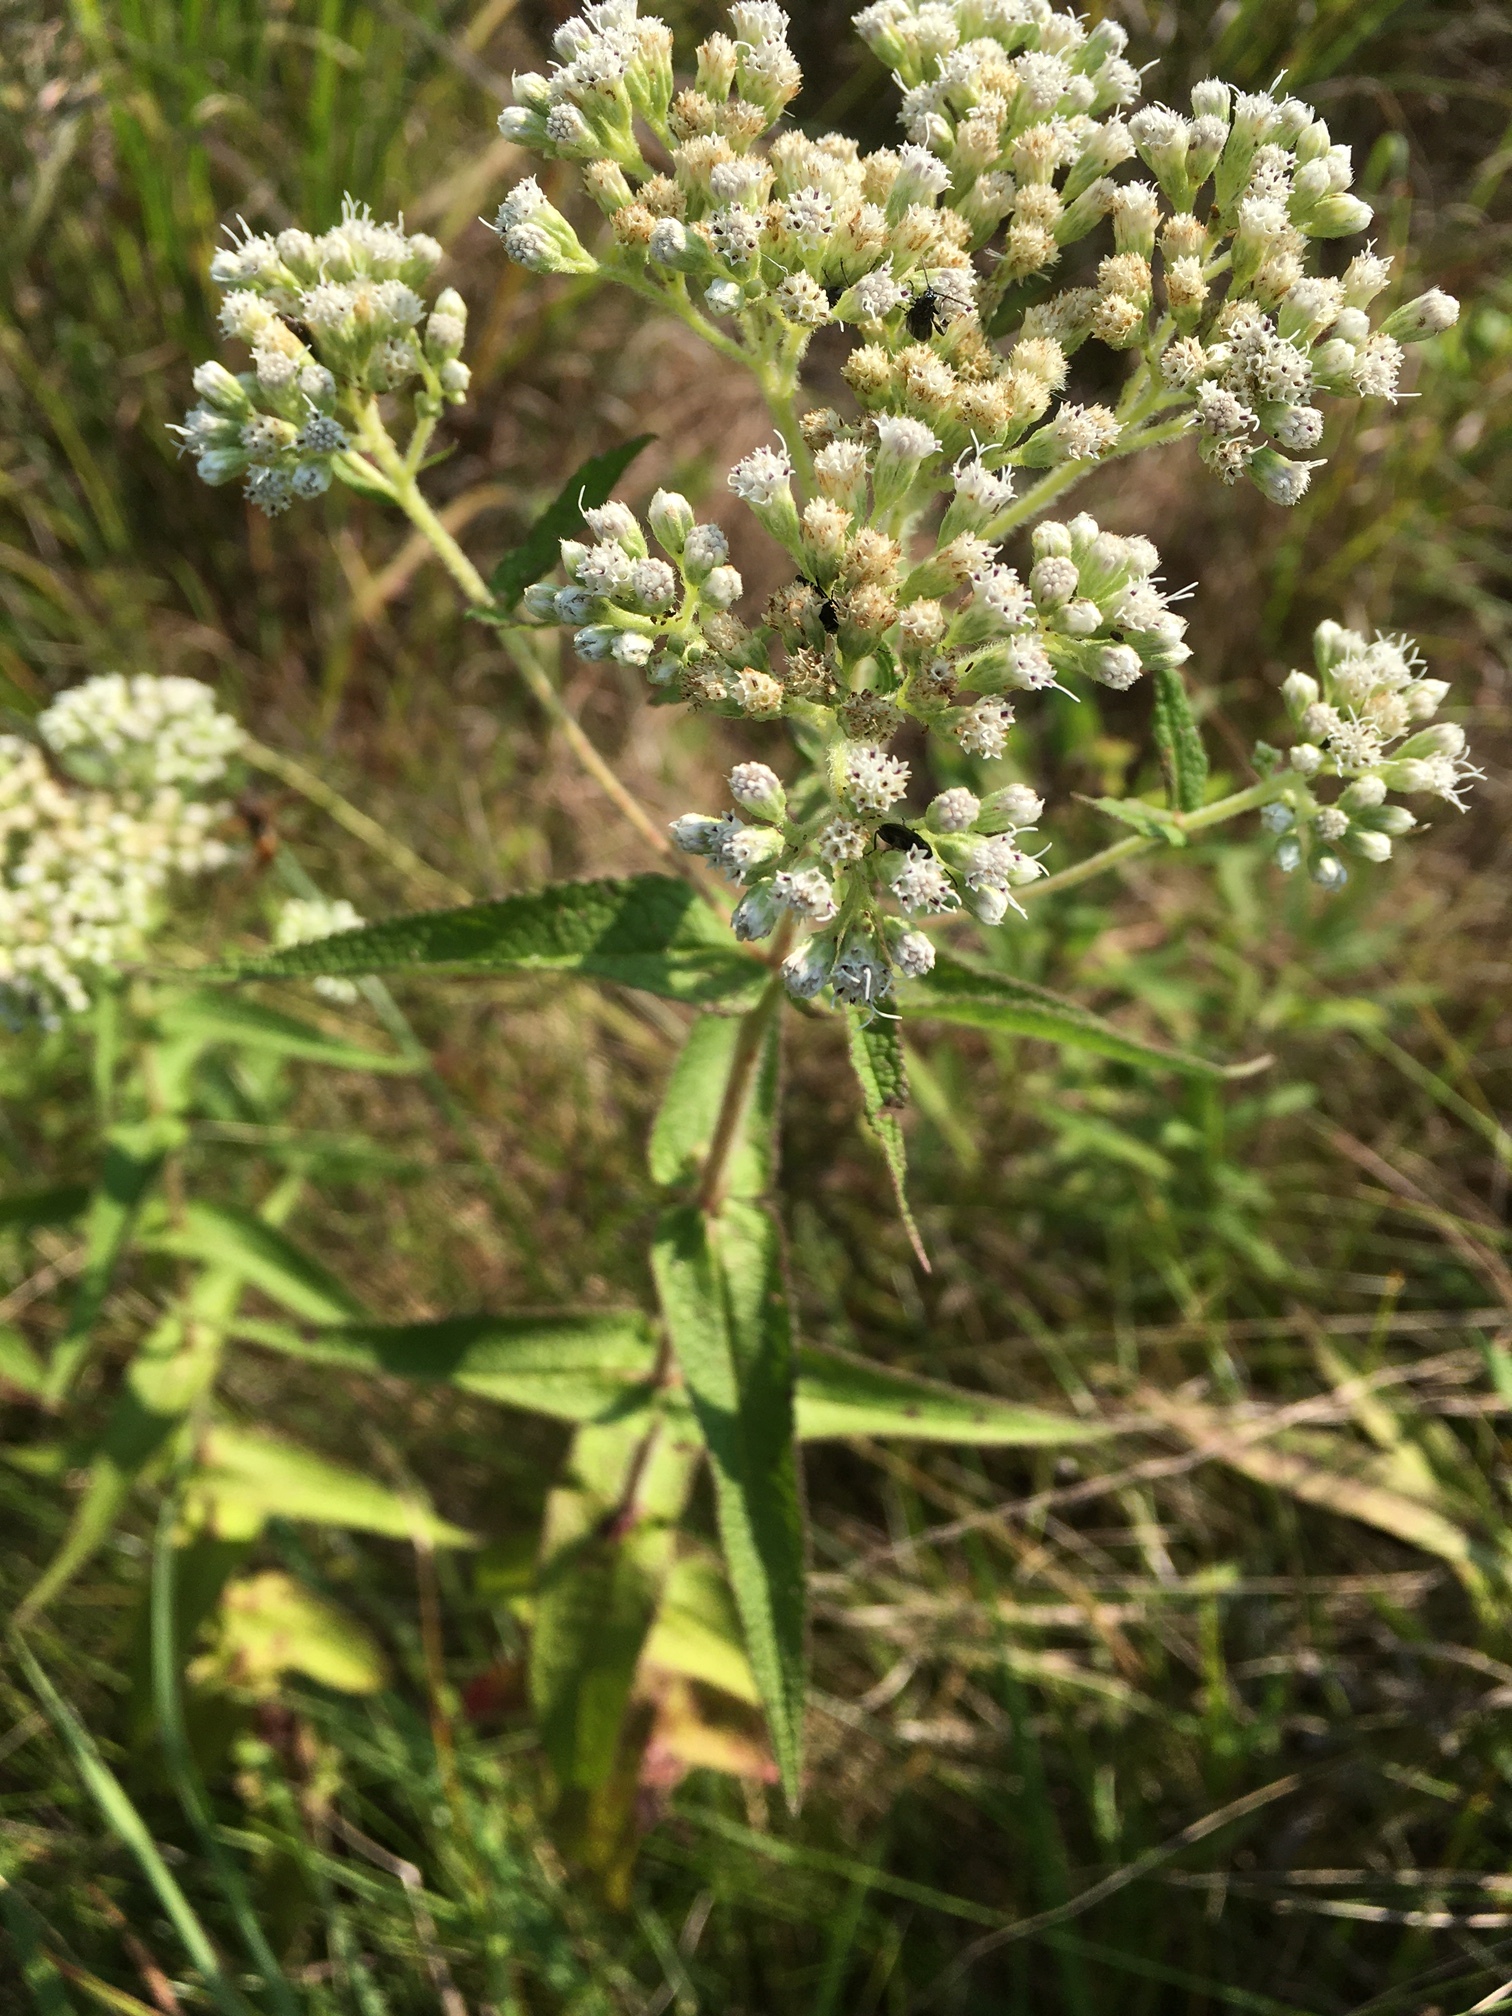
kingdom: Plantae
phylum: Tracheophyta
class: Magnoliopsida
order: Asterales
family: Asteraceae
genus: Eupatorium
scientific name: Eupatorium perfoliatum
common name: Boneset
